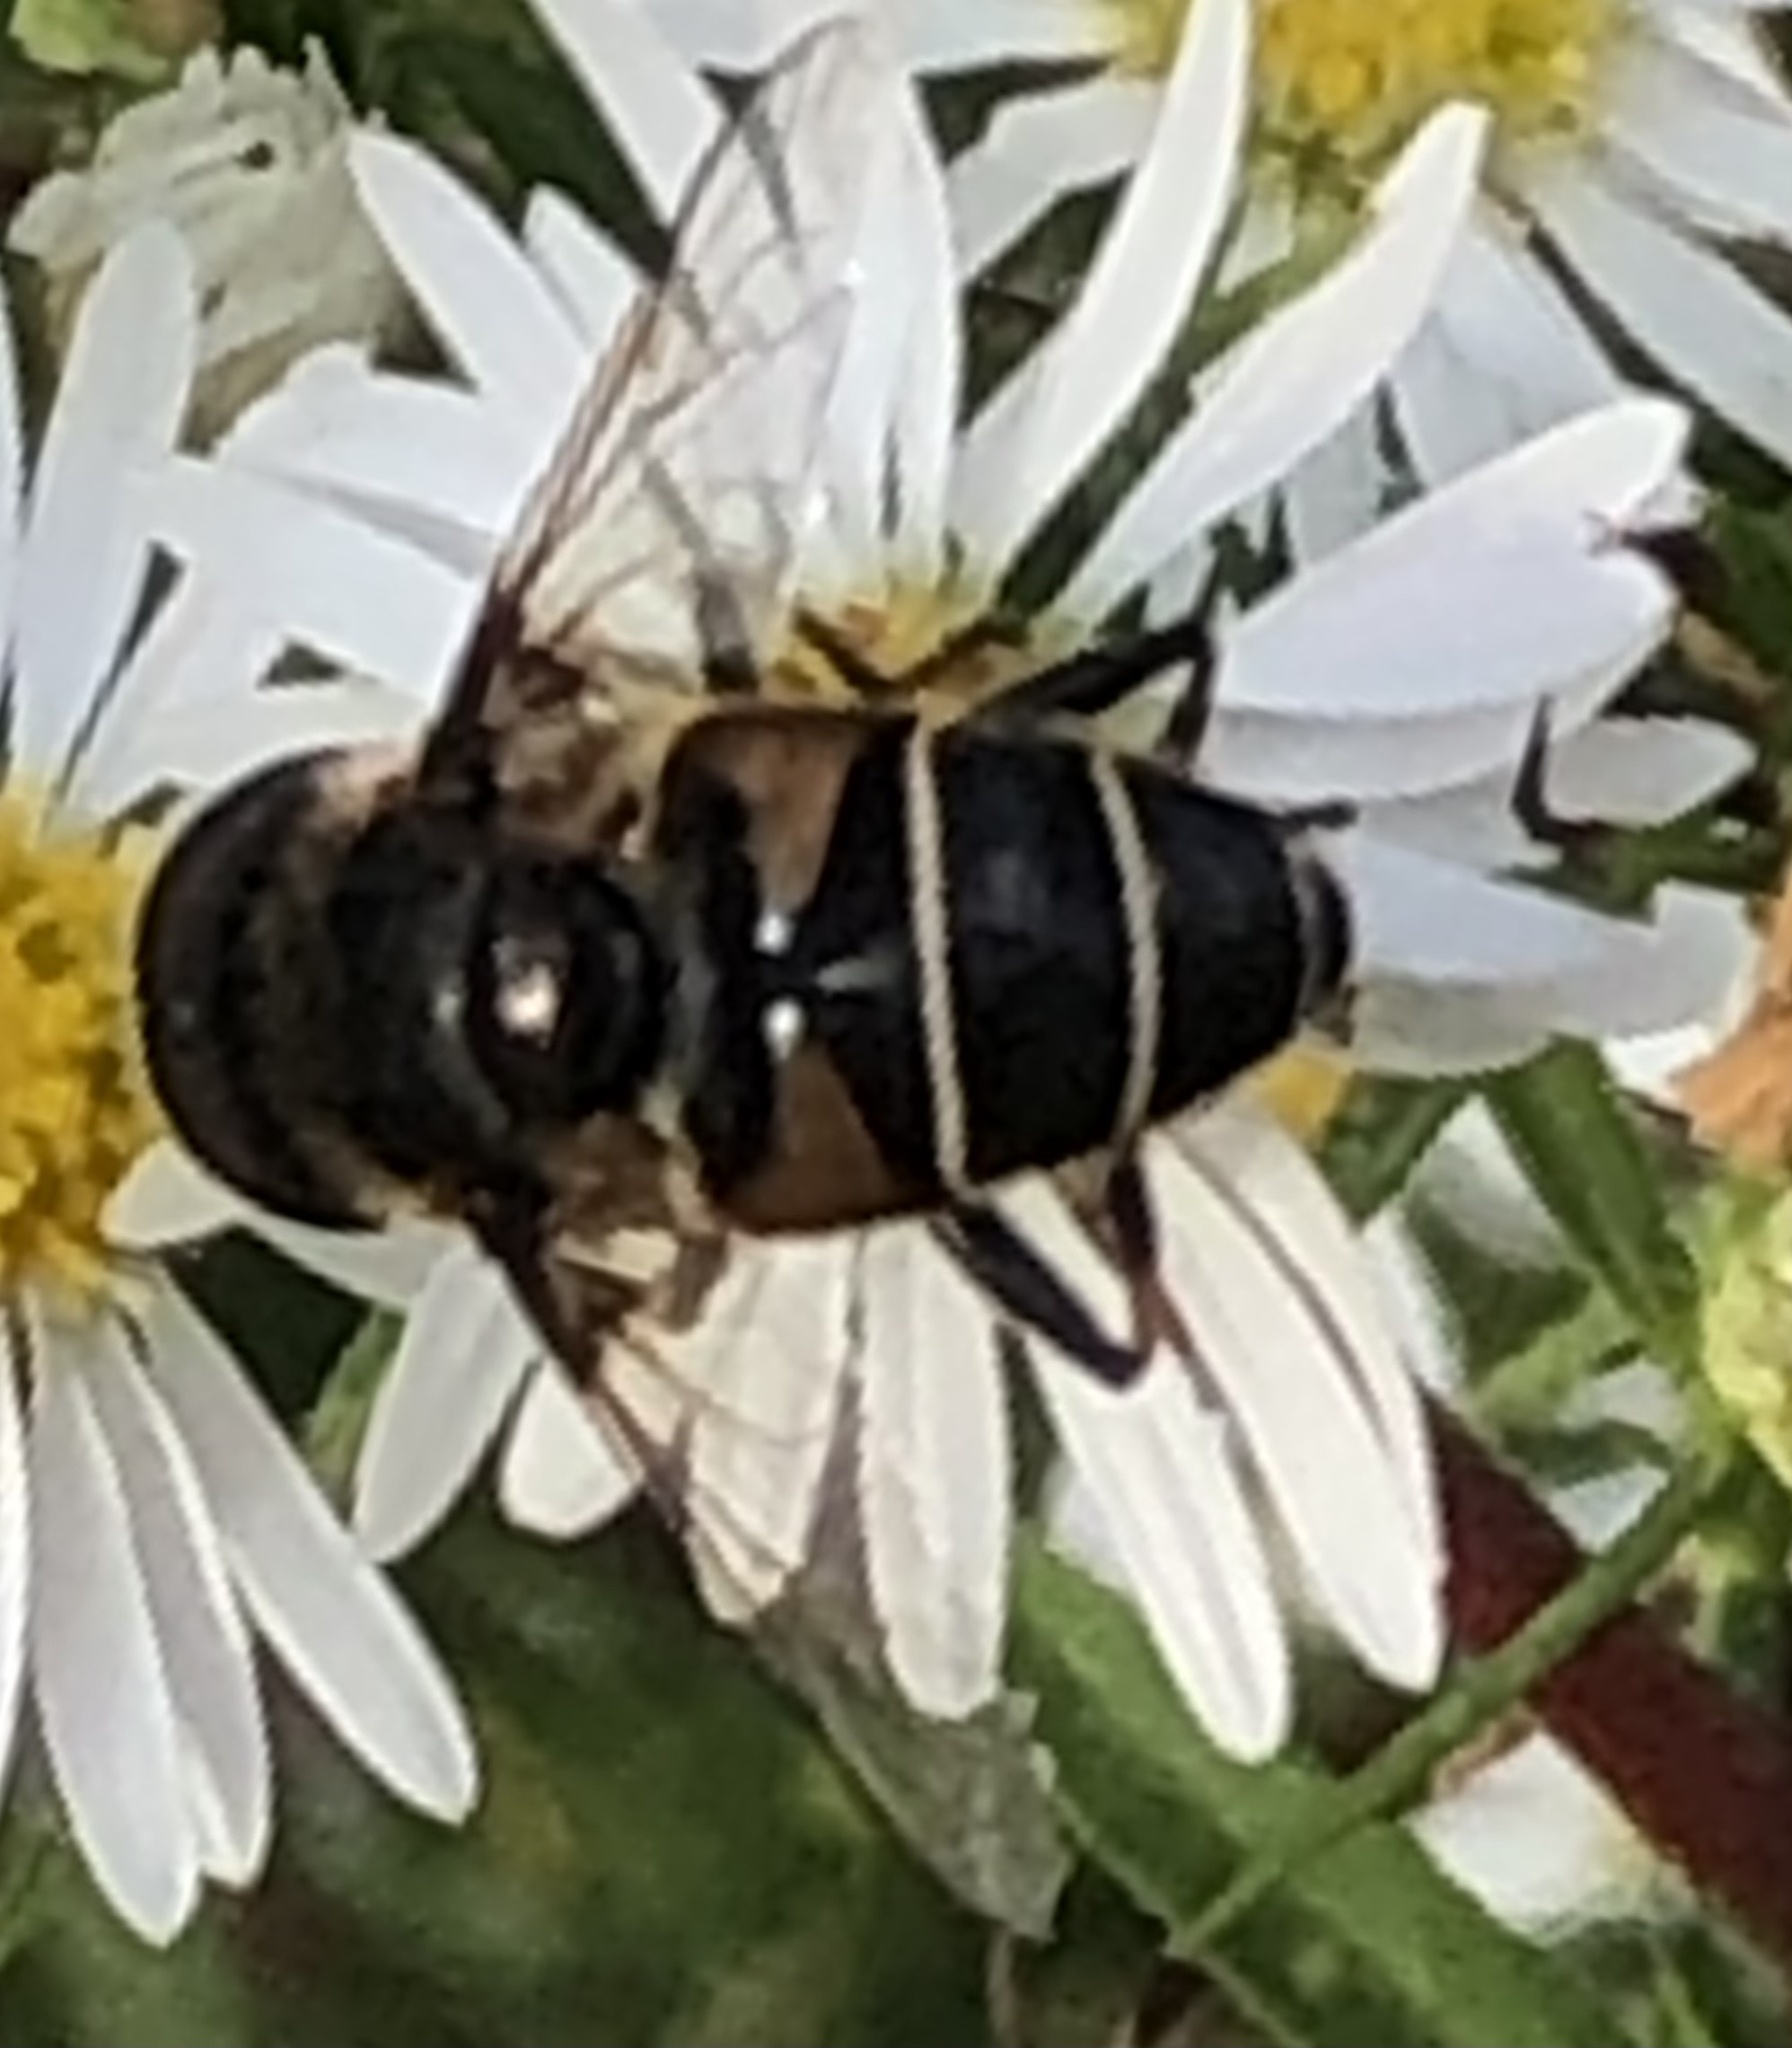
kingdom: Animalia
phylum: Arthropoda
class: Insecta
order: Diptera
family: Syrphidae
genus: Eristalis
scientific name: Eristalis dimidiata
